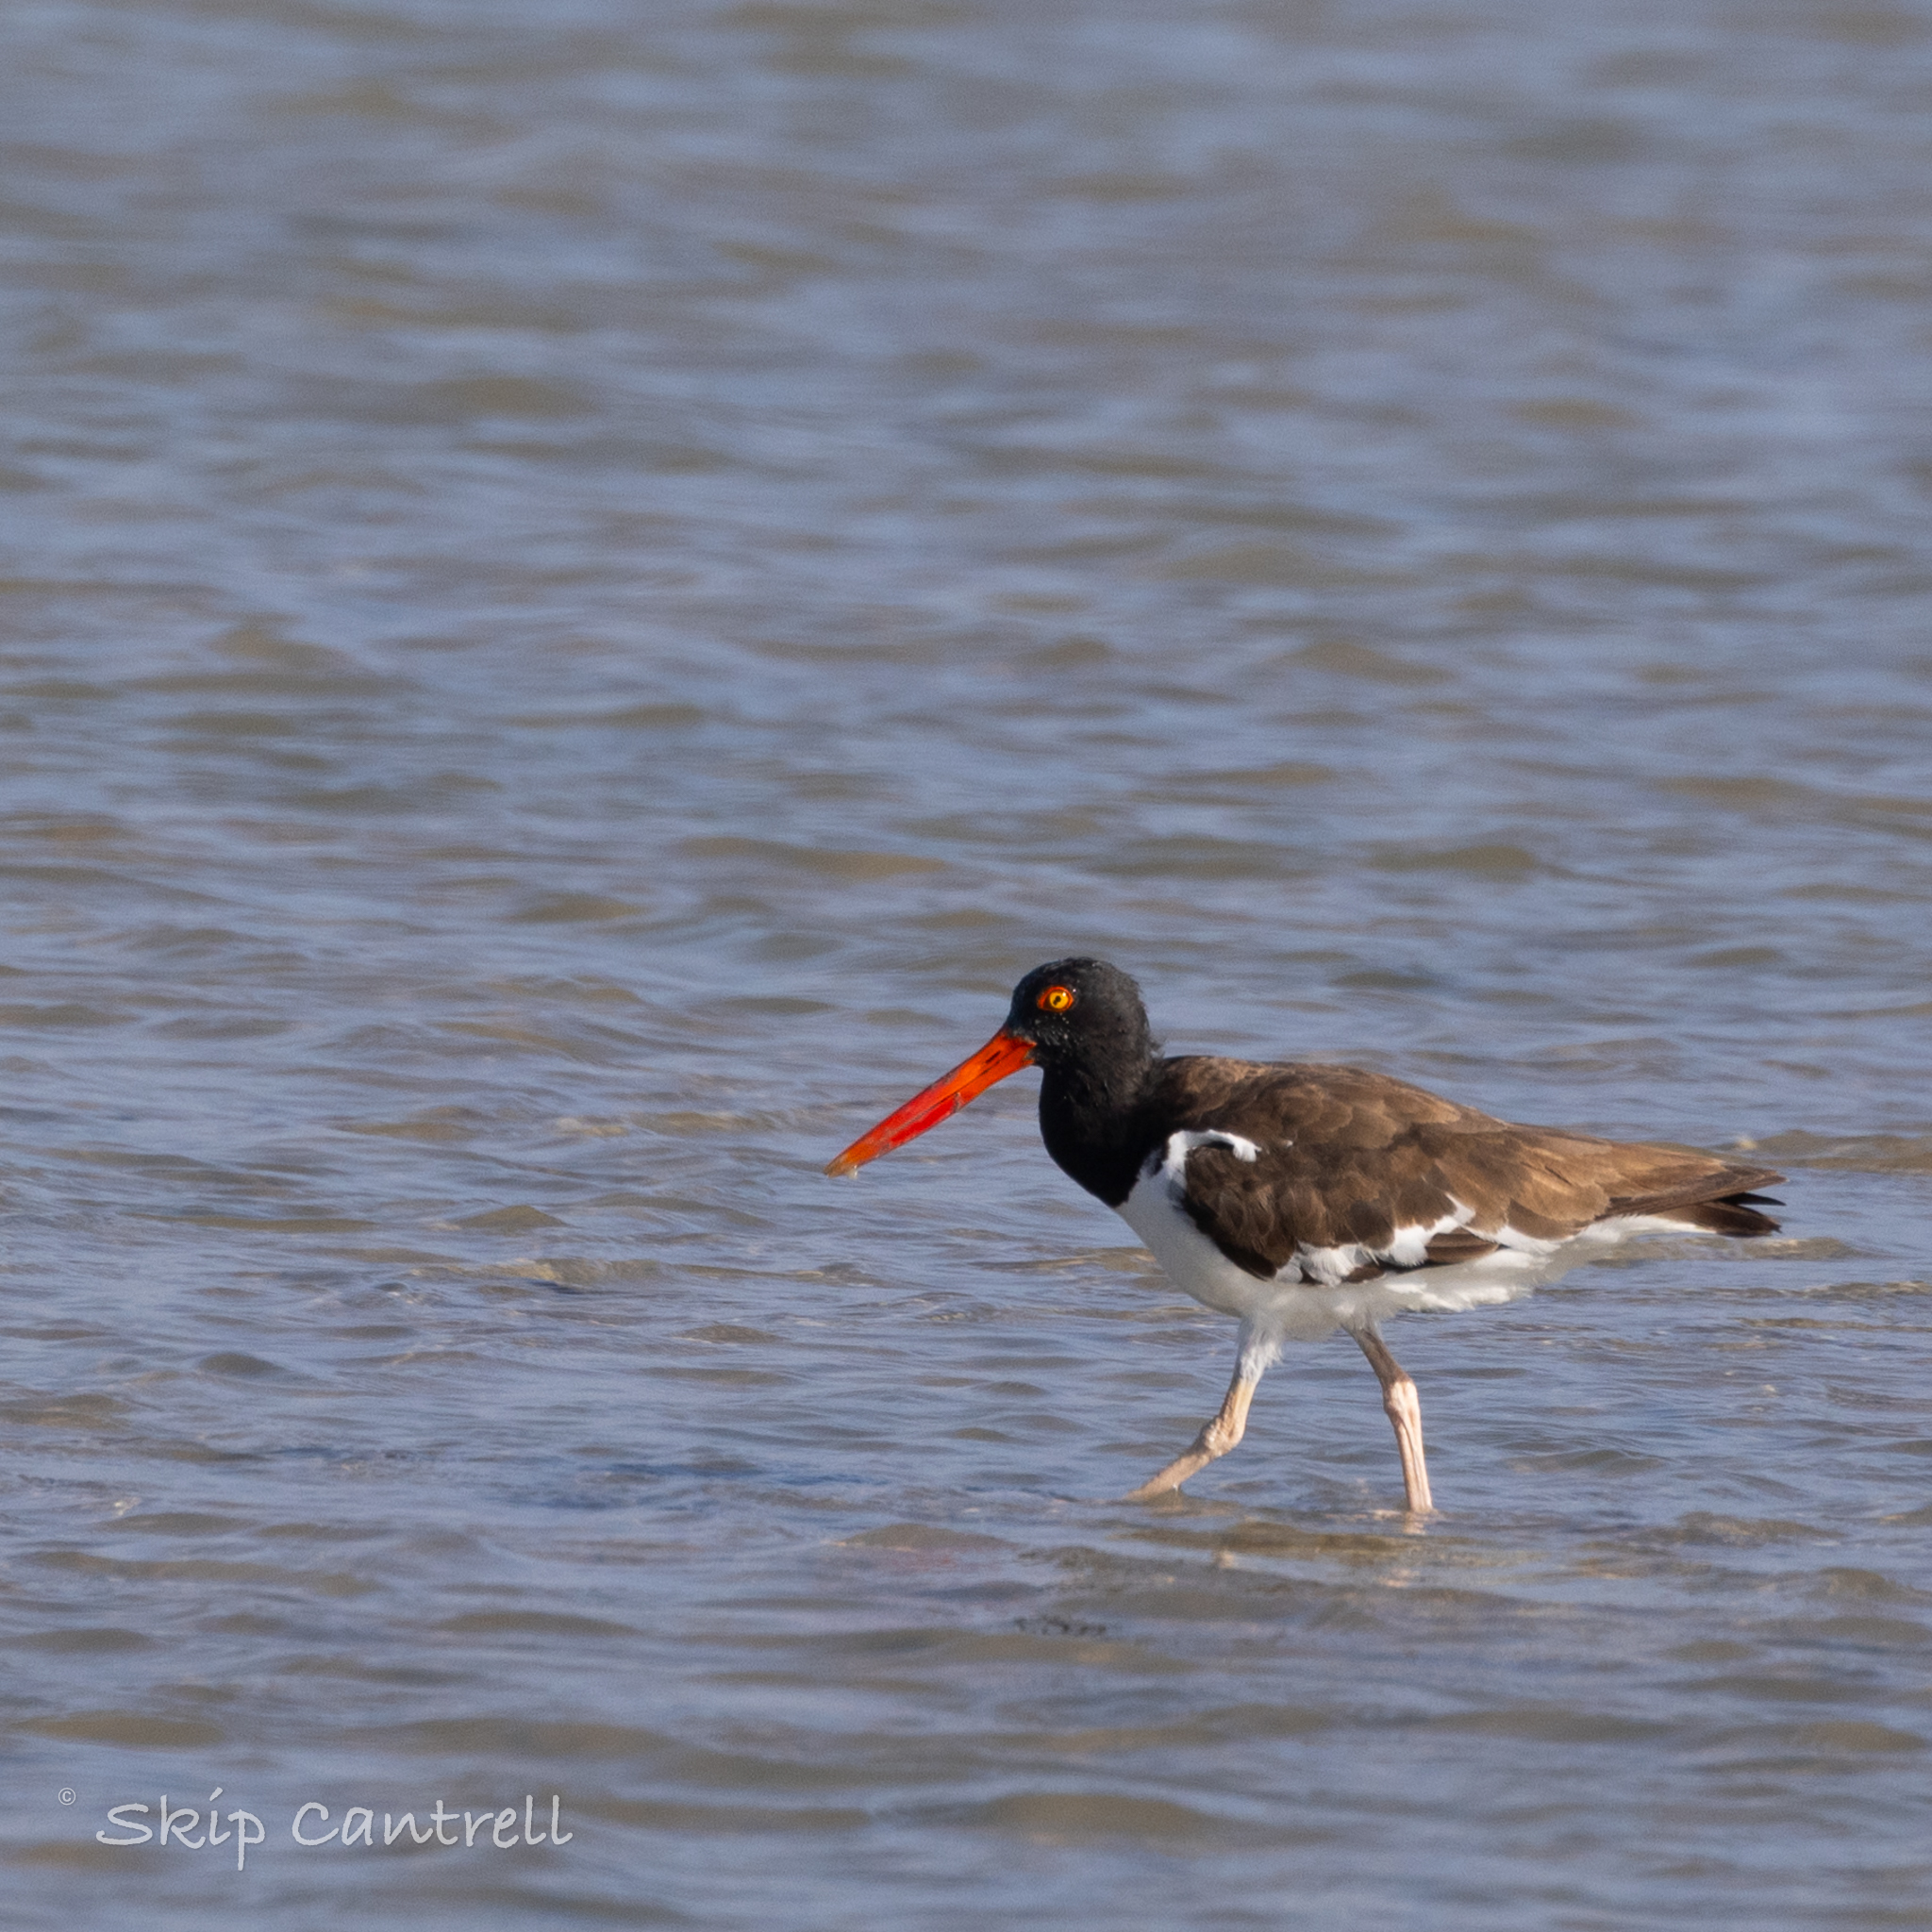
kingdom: Animalia
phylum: Chordata
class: Aves
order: Charadriiformes
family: Haematopodidae
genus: Haematopus
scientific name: Haematopus palliatus
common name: American oystercatcher
